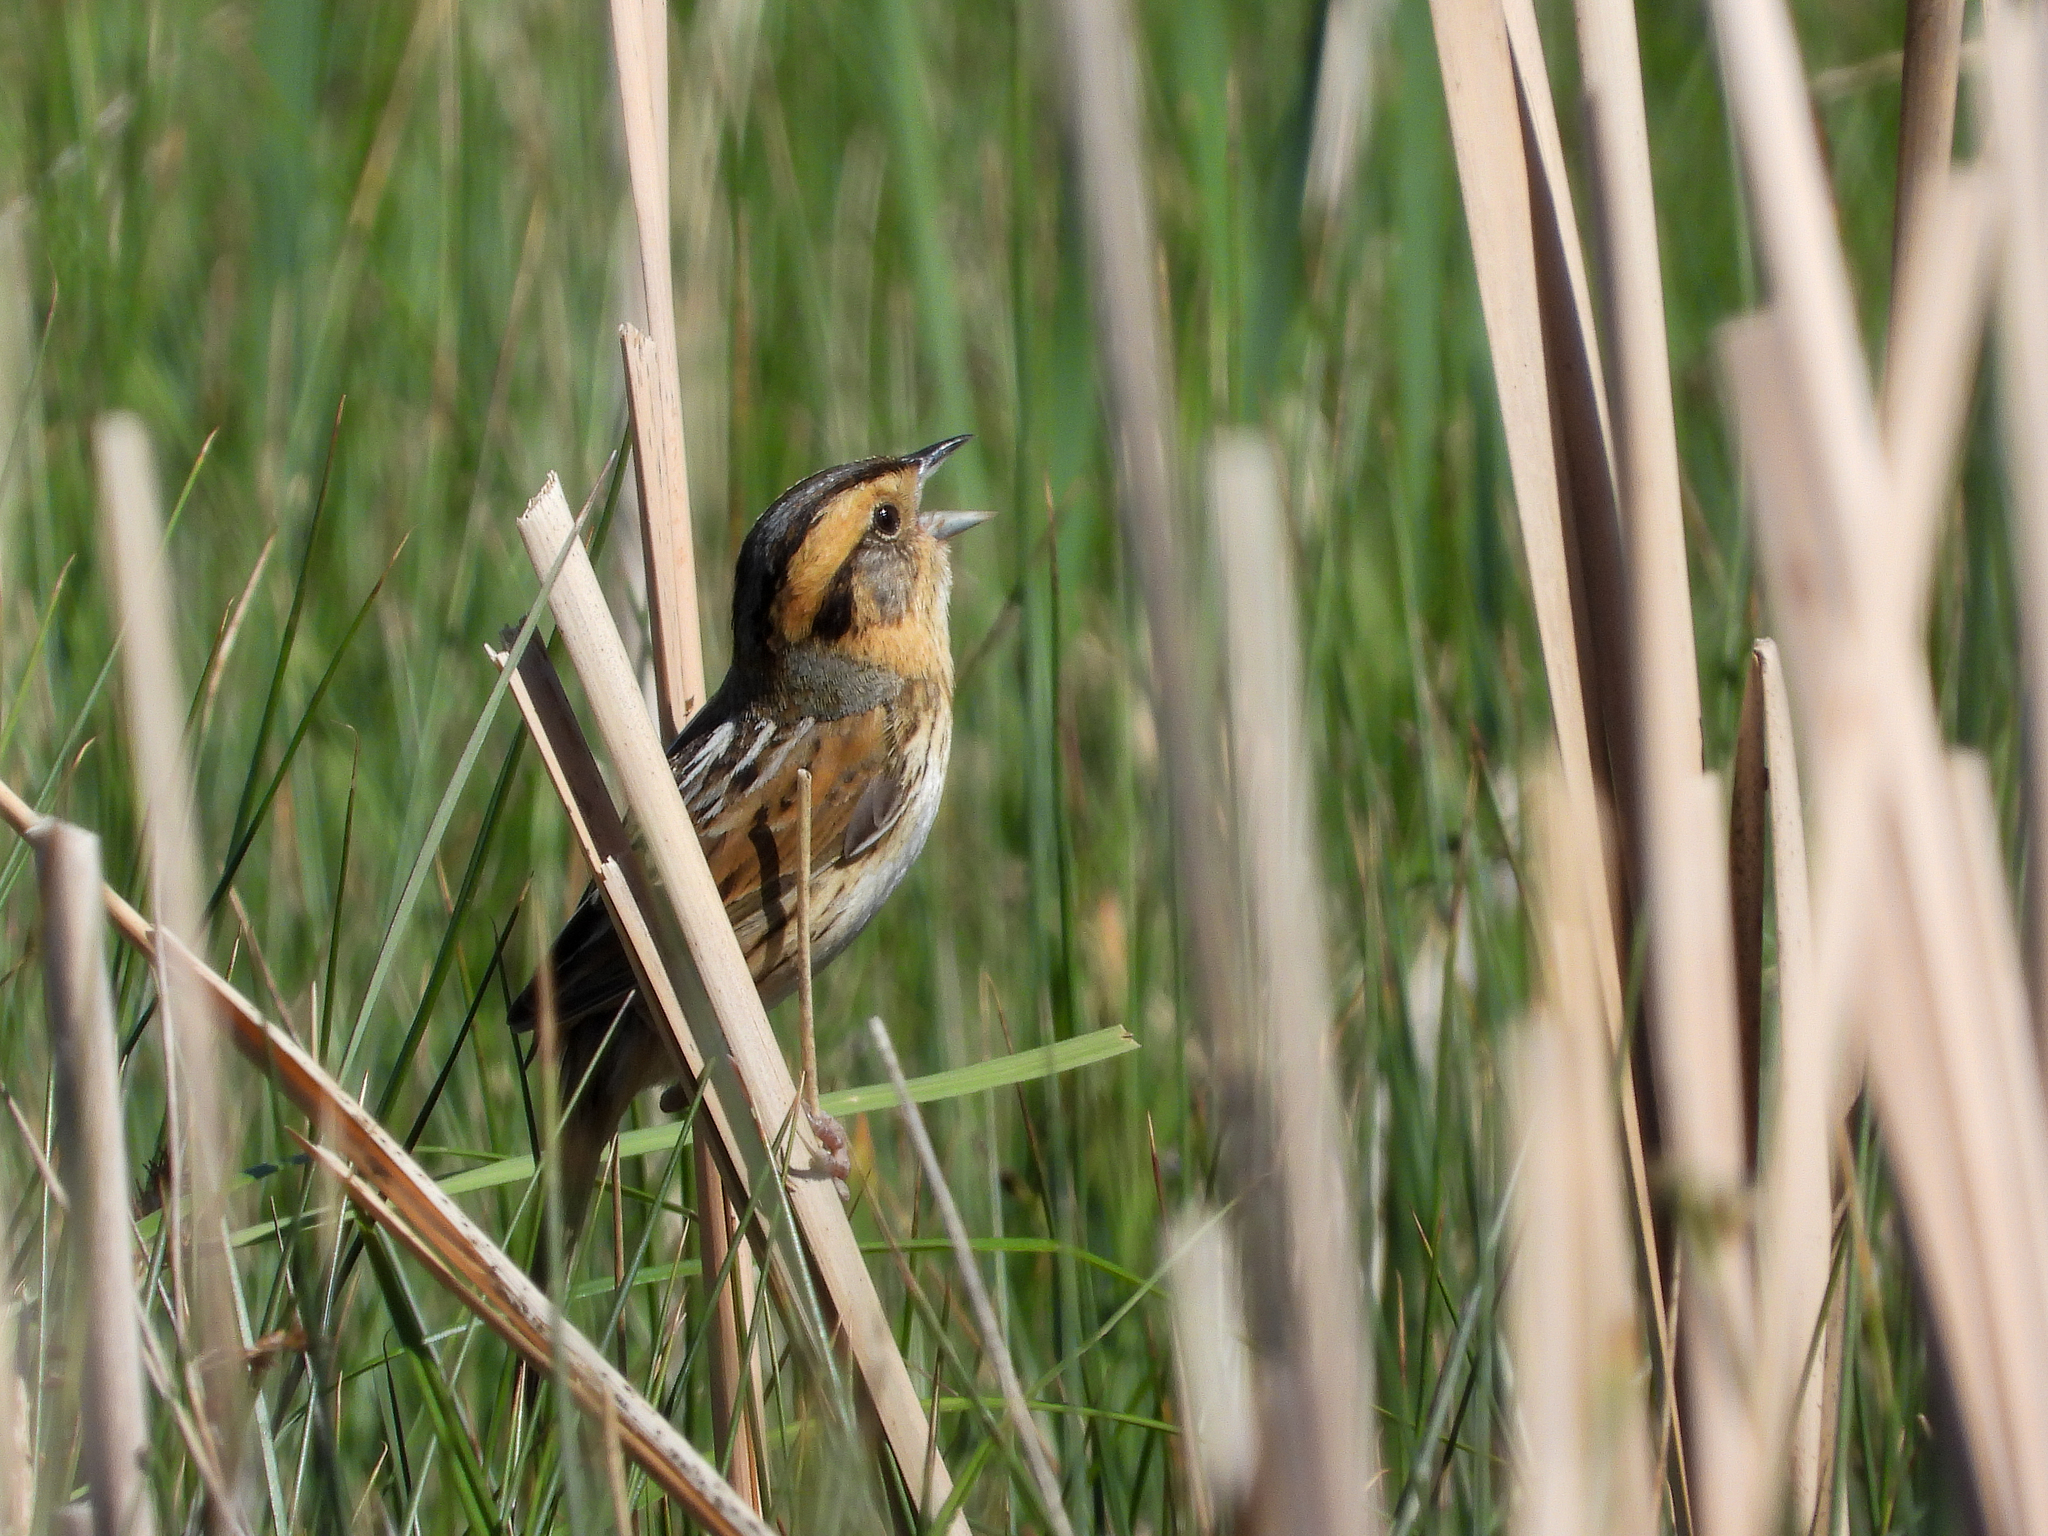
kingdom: Animalia
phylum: Chordata
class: Aves
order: Passeriformes
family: Passerellidae
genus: Ammospiza
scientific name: Ammospiza nelsoni
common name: Nelson's sparrow
